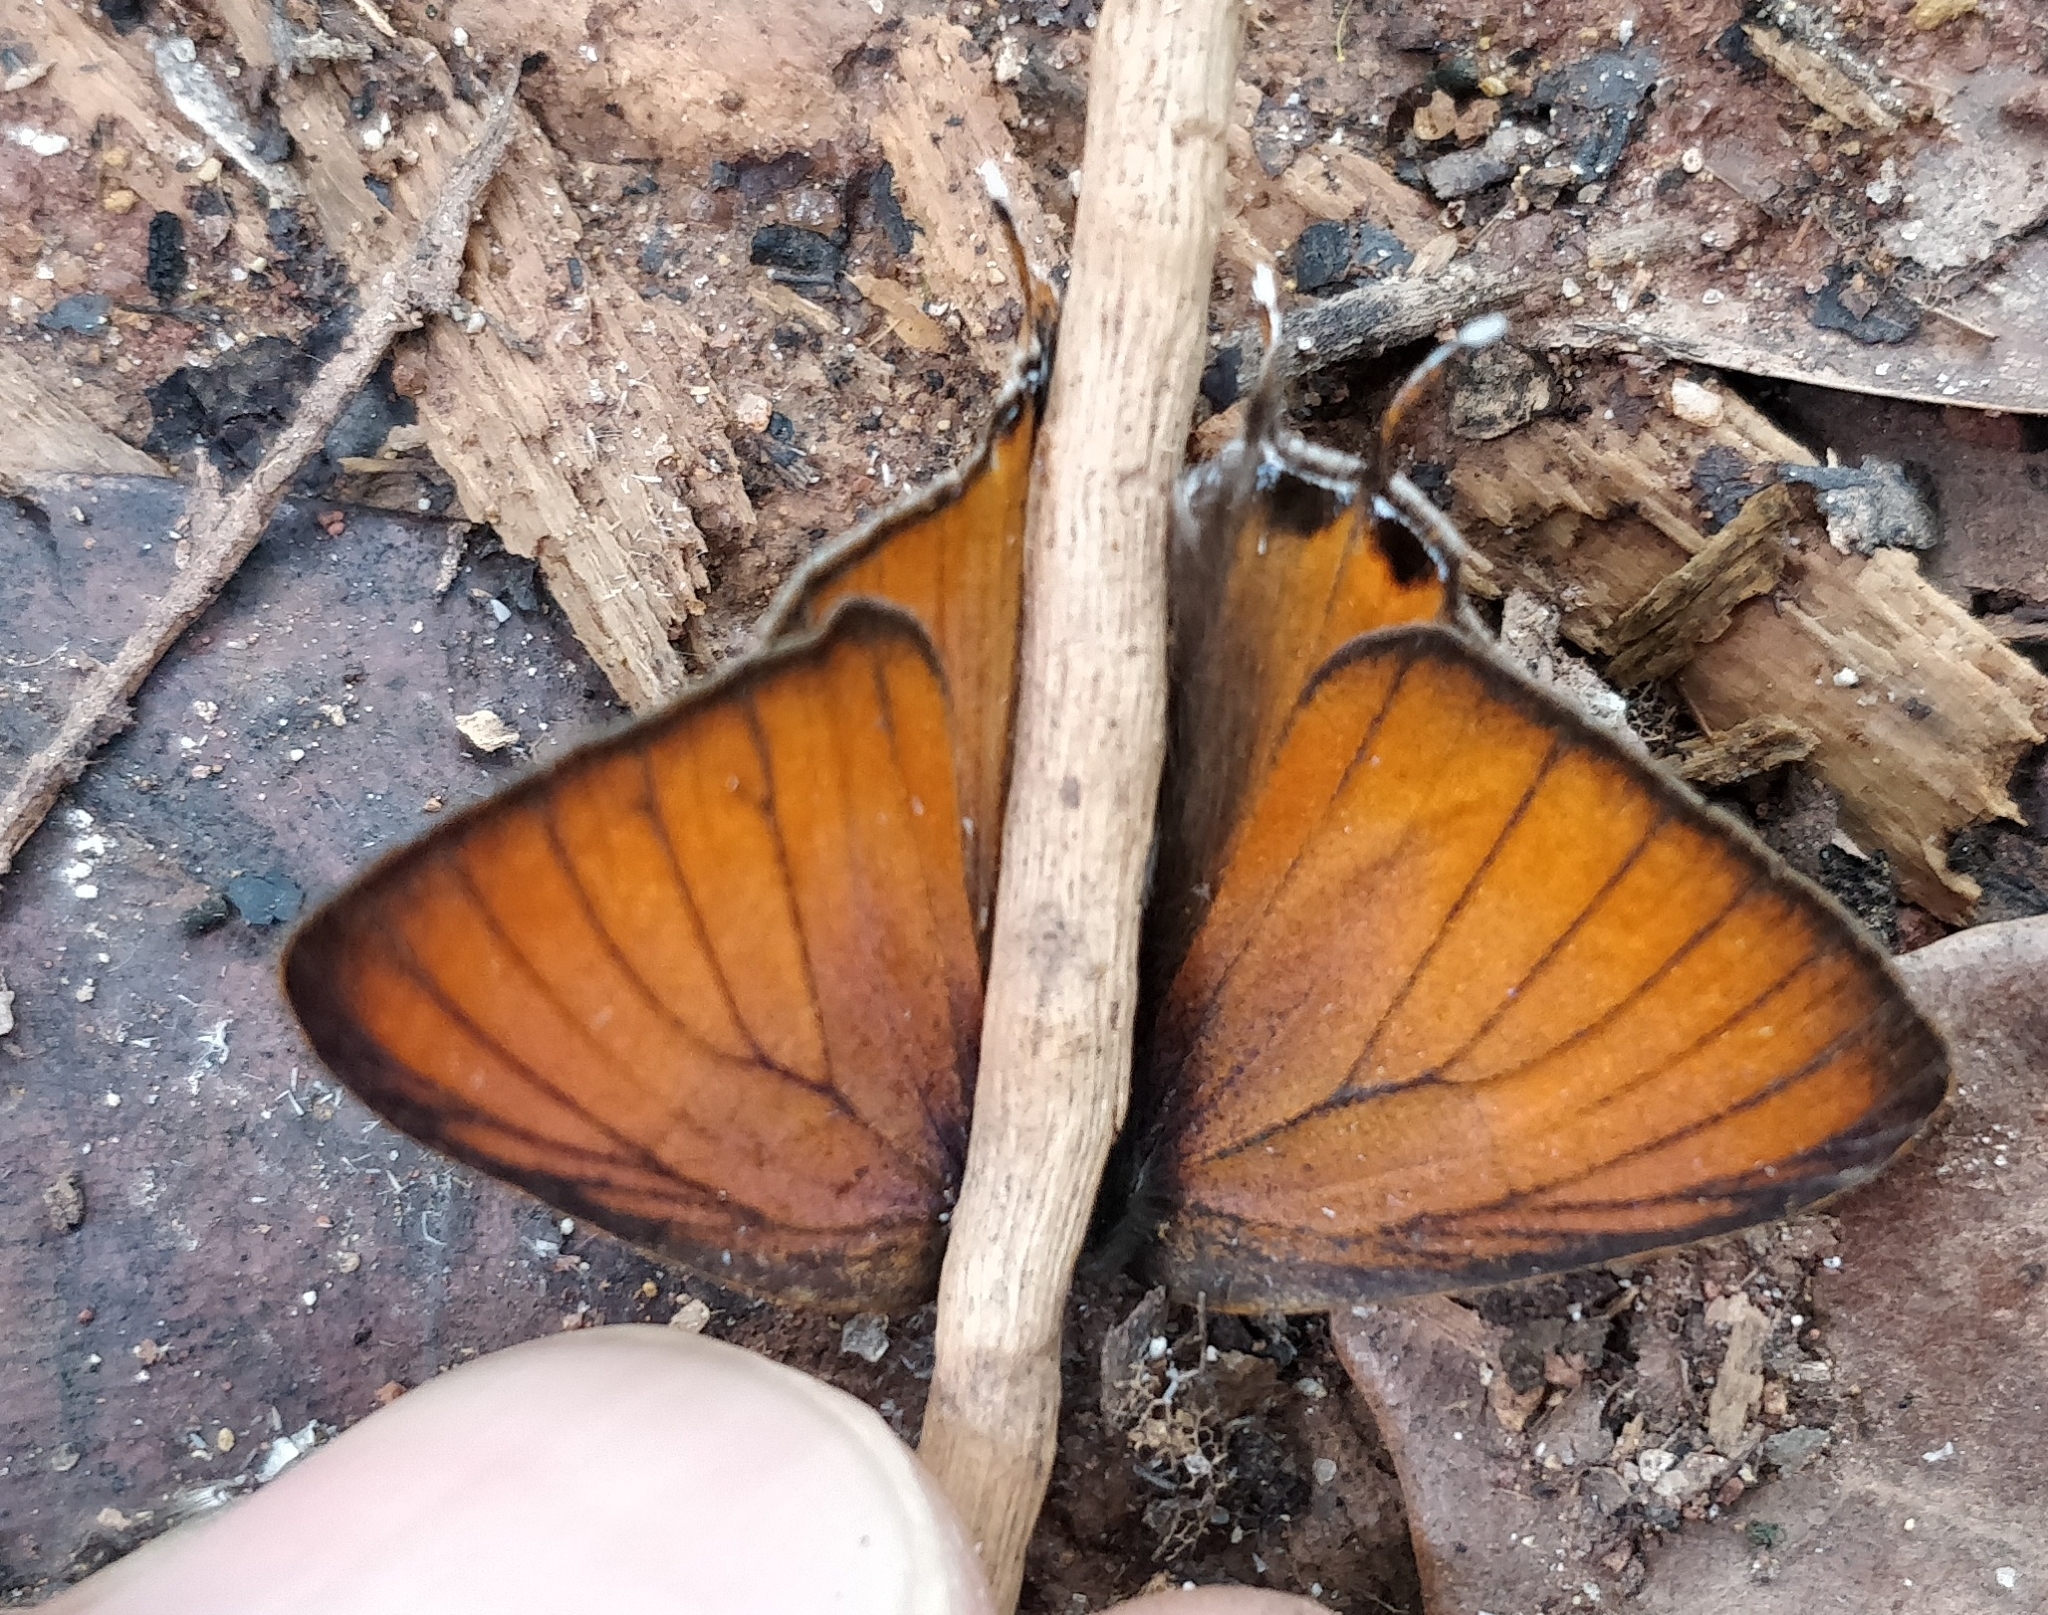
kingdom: Animalia
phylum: Arthropoda
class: Insecta
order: Lepidoptera
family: Lycaenidae
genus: Zesius
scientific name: Zesius chrysomallus
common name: Redspot
